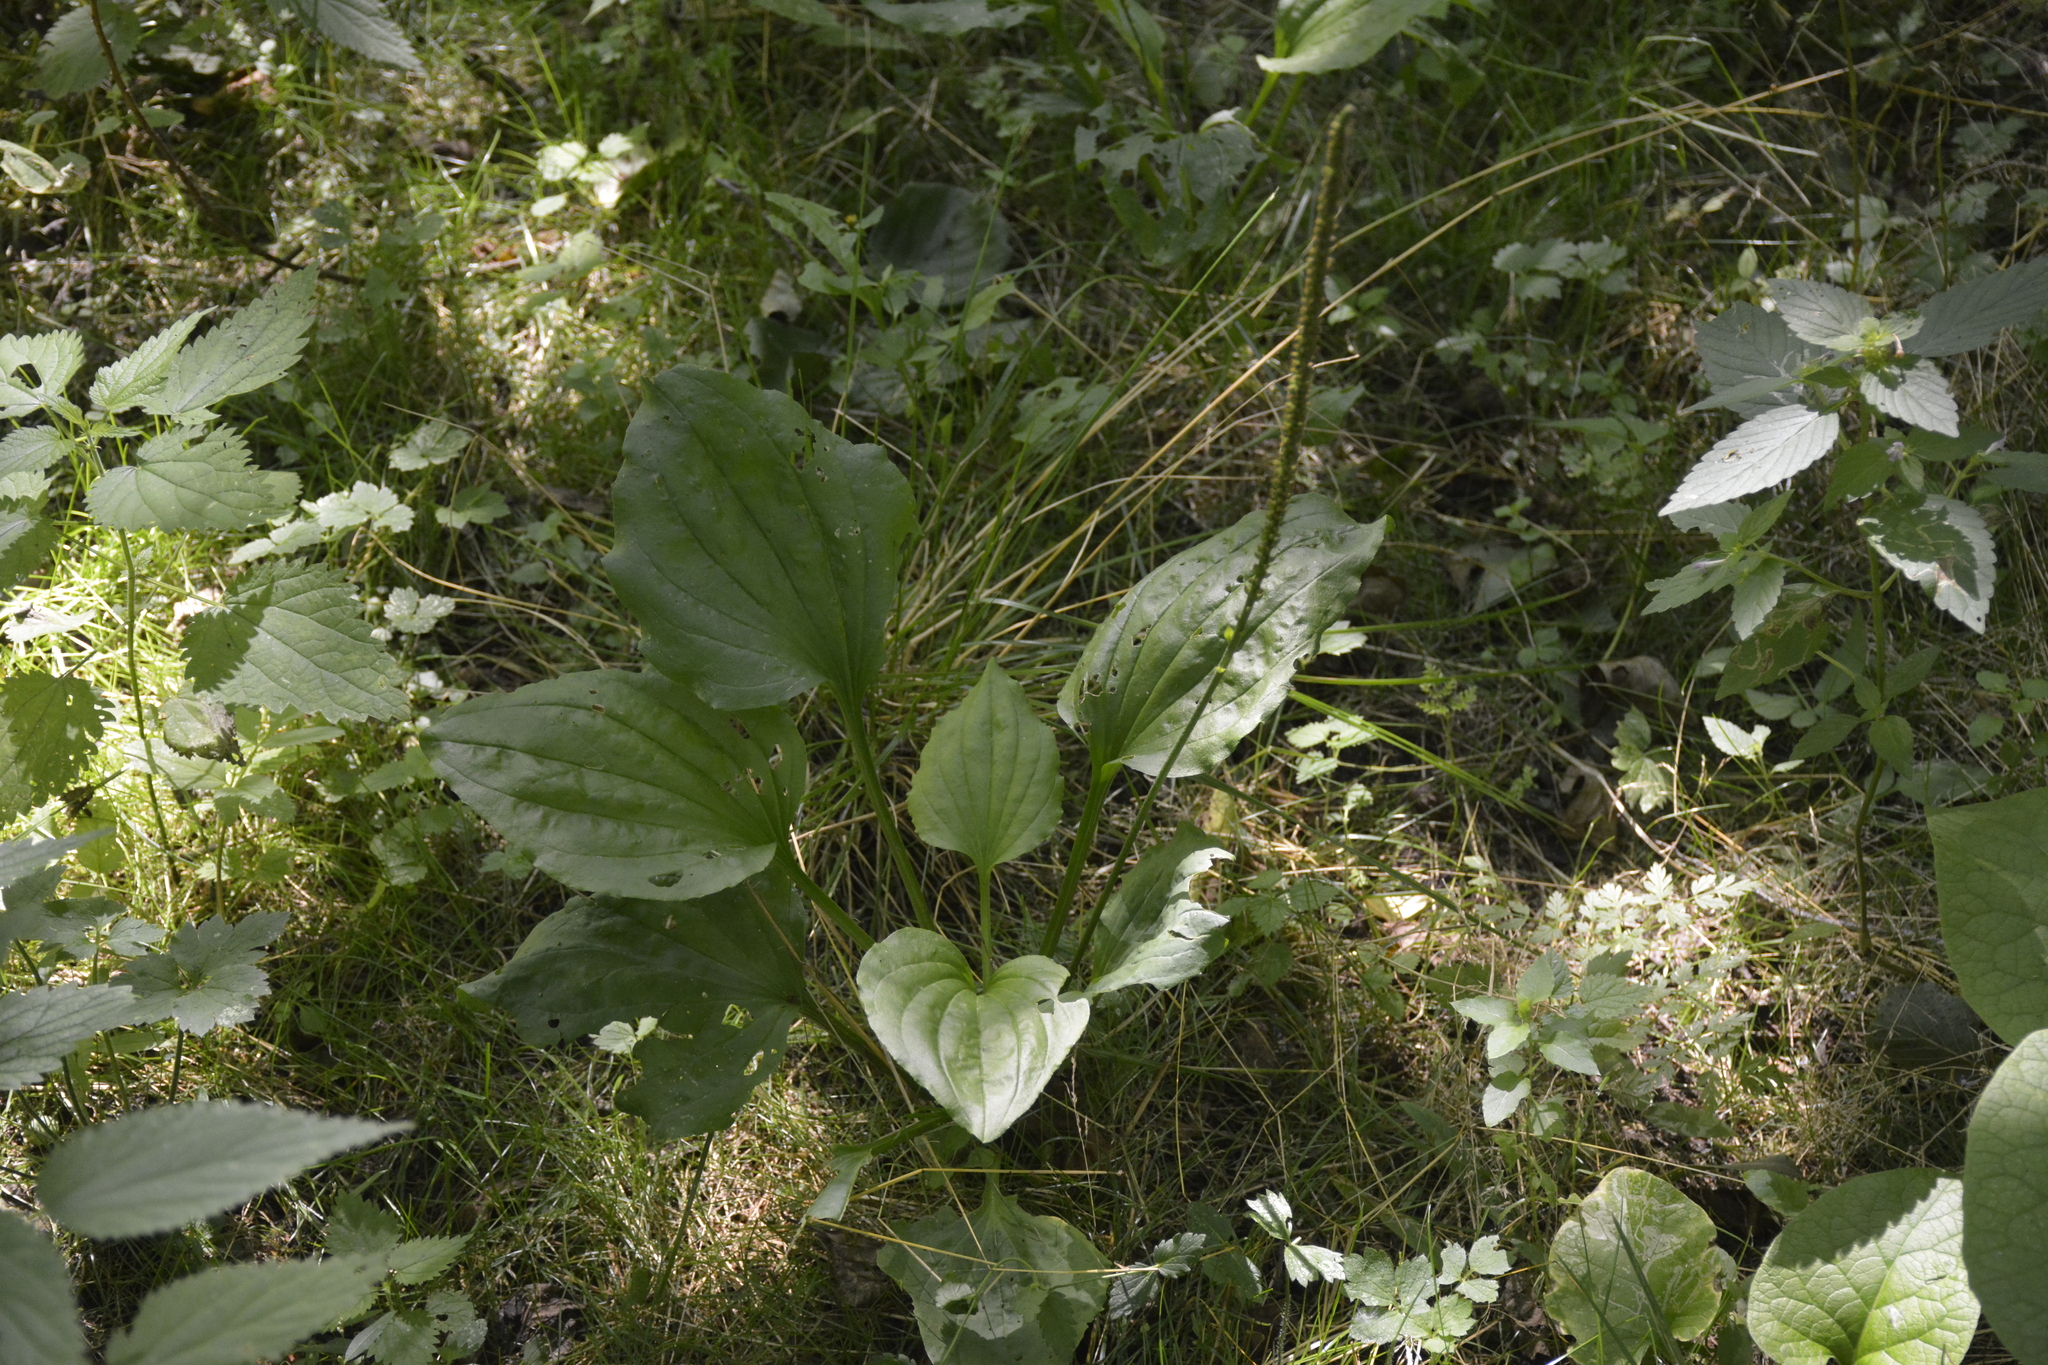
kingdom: Plantae
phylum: Tracheophyta
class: Magnoliopsida
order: Lamiales
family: Plantaginaceae
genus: Plantago
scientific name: Plantago major
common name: Common plantain
